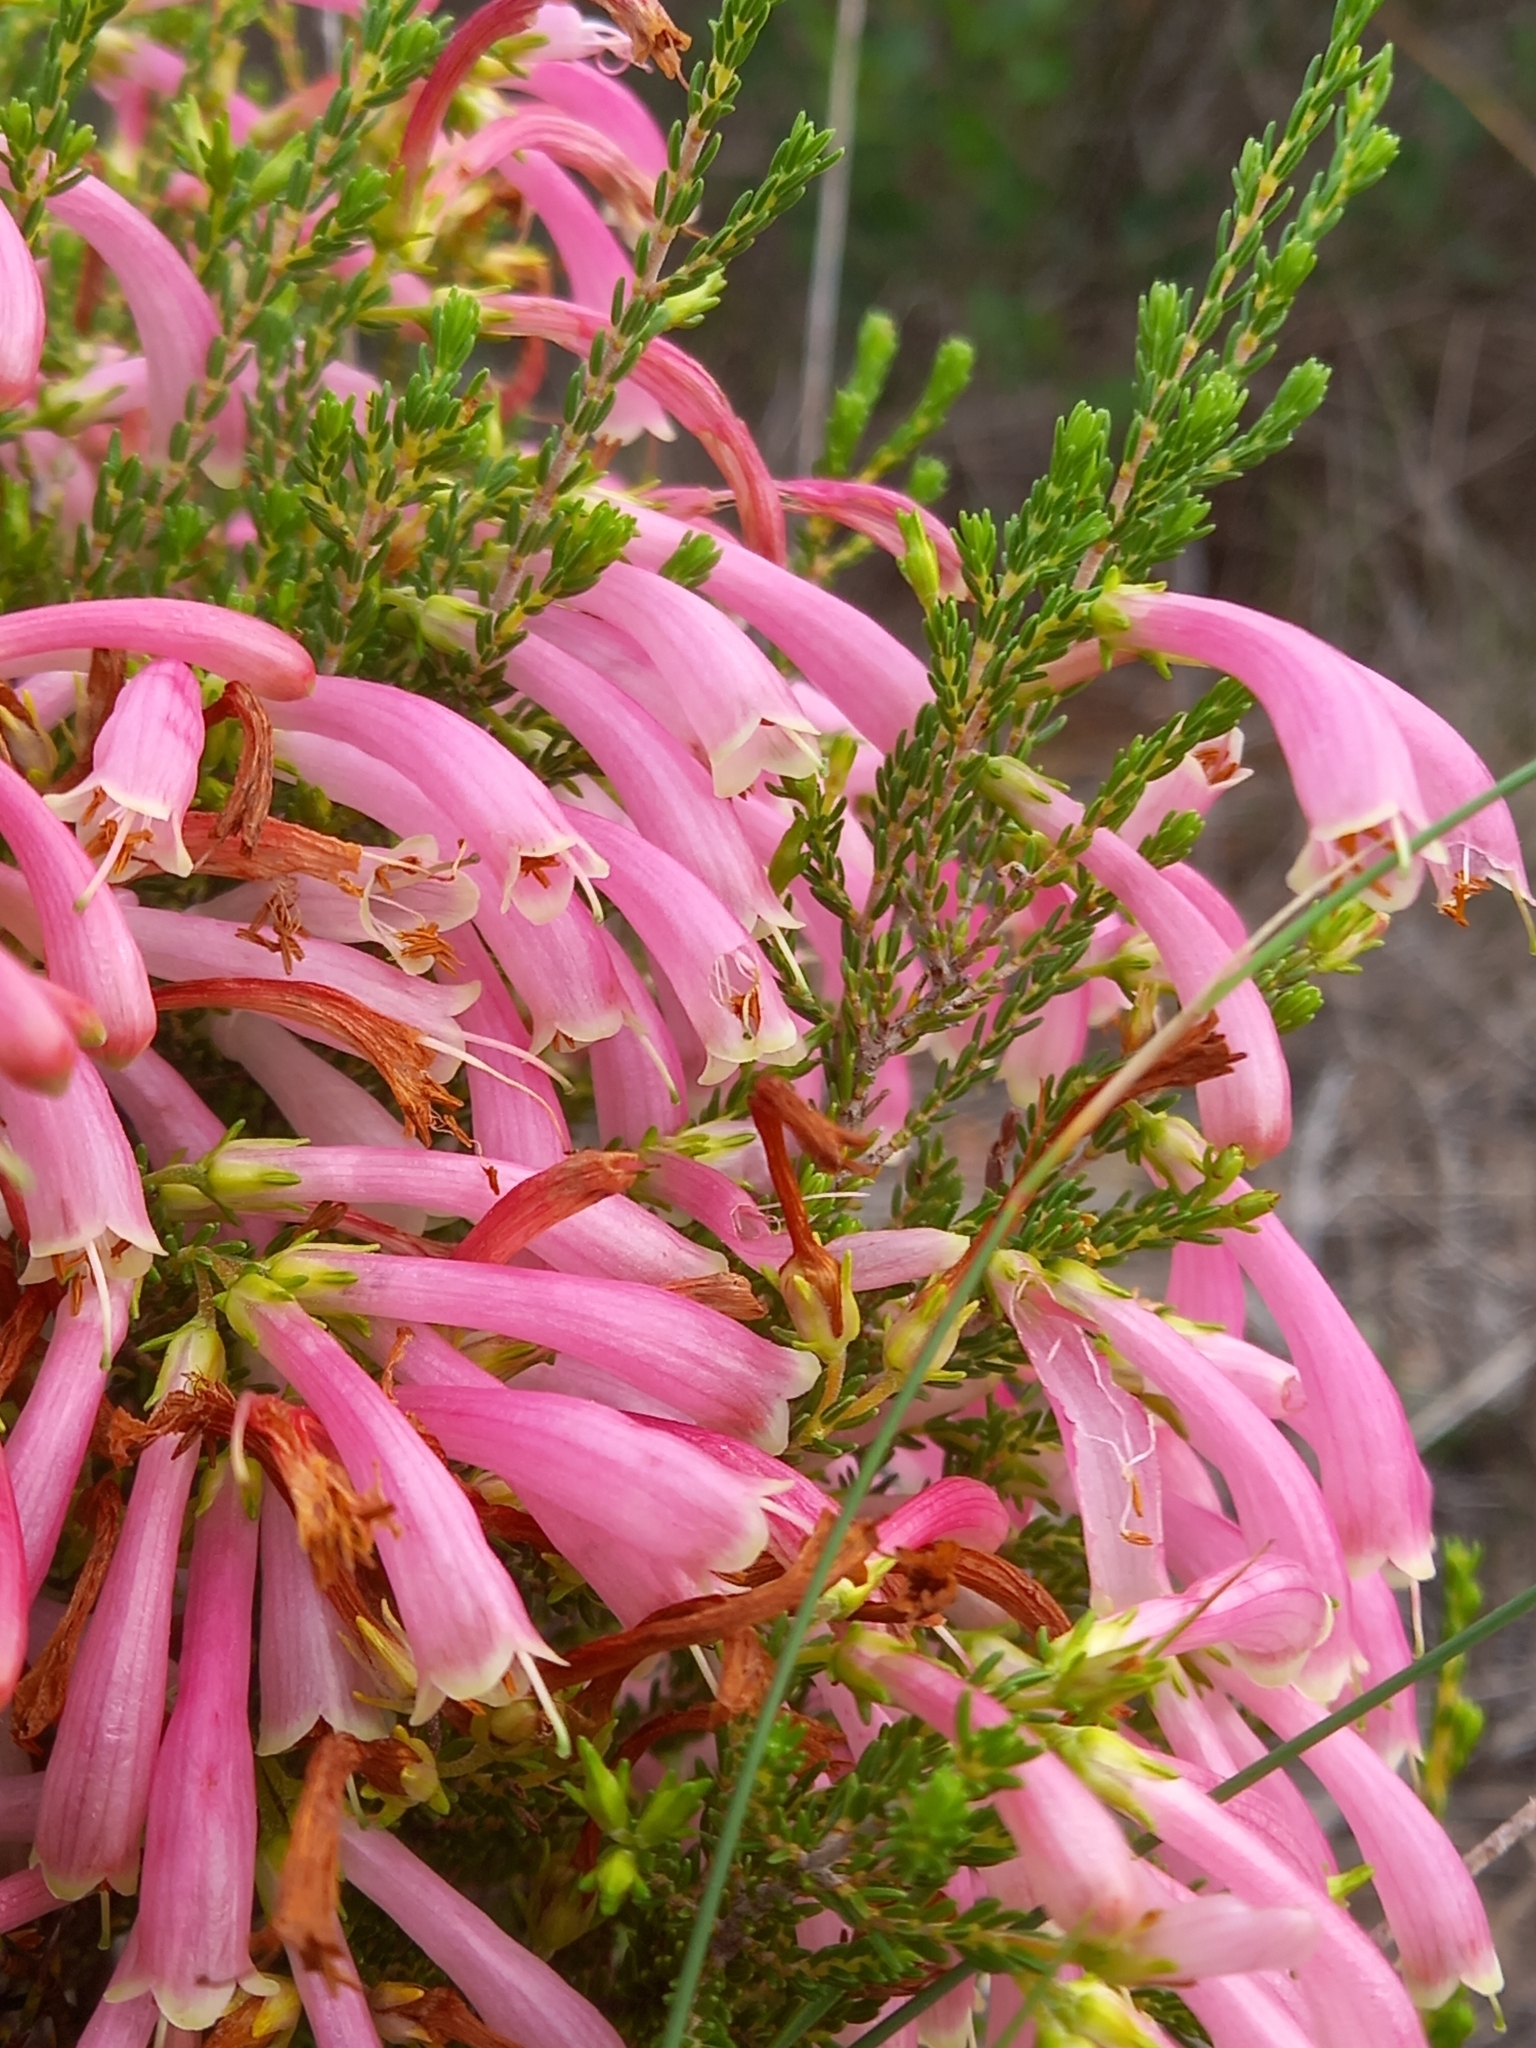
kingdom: Plantae
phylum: Tracheophyta
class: Magnoliopsida
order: Ericales
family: Ericaceae
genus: Erica
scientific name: Erica discolor
